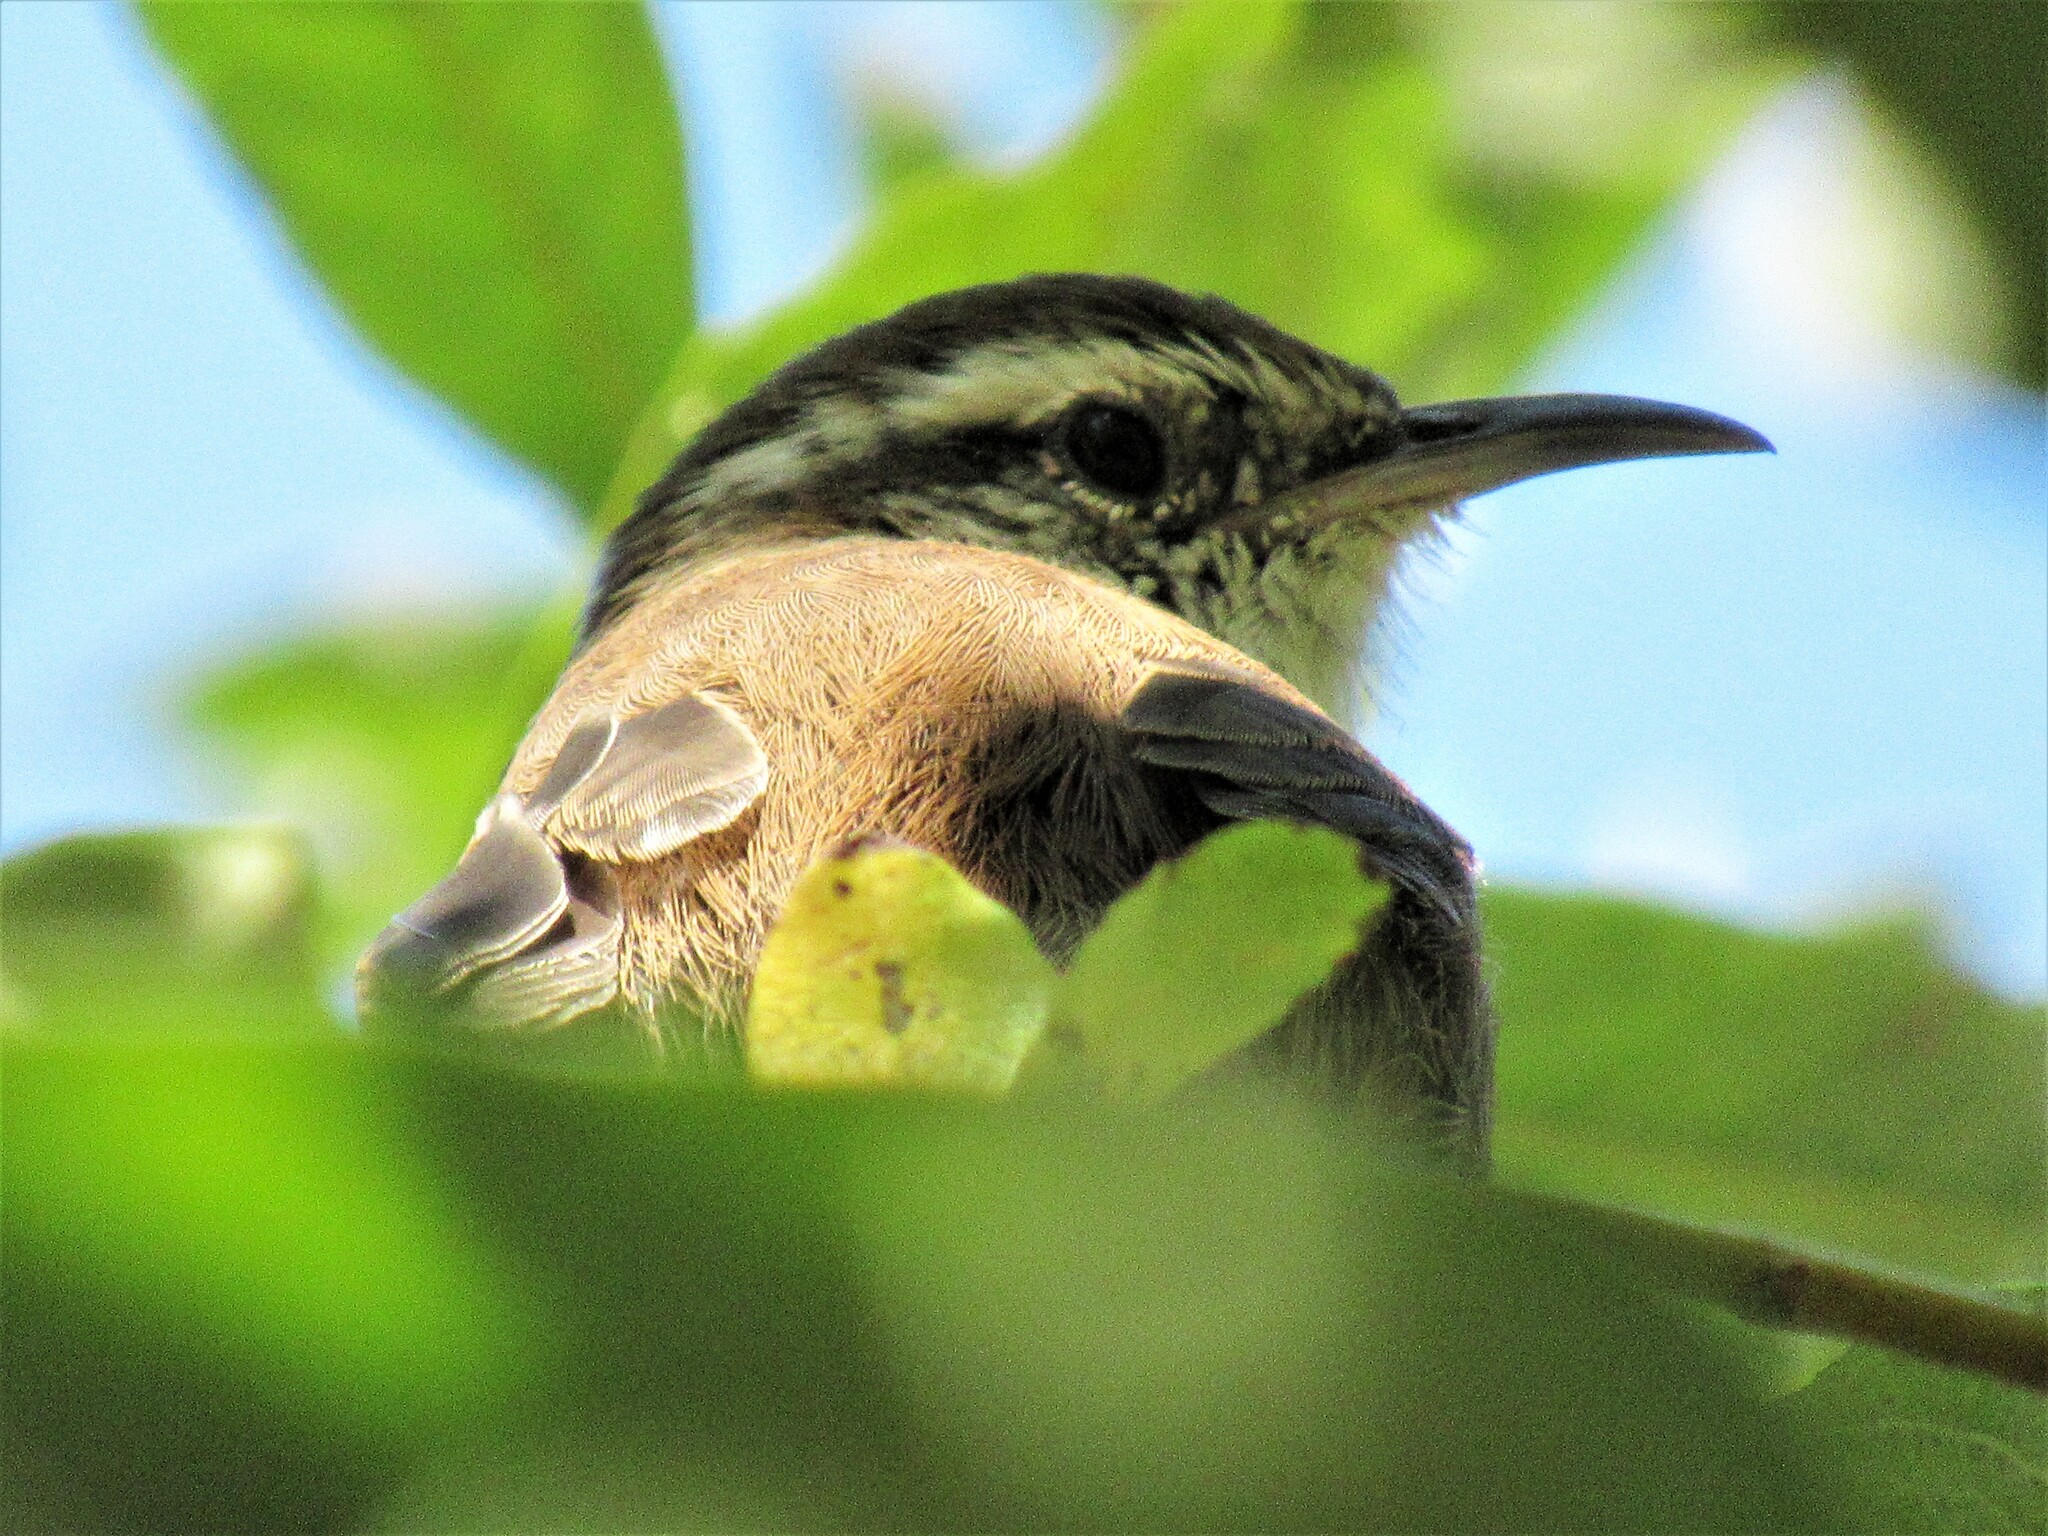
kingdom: Animalia
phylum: Chordata
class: Aves
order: Passeriformes
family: Troglodytidae
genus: Thryomanes
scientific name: Thryomanes bewickii
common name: Bewick's wren
